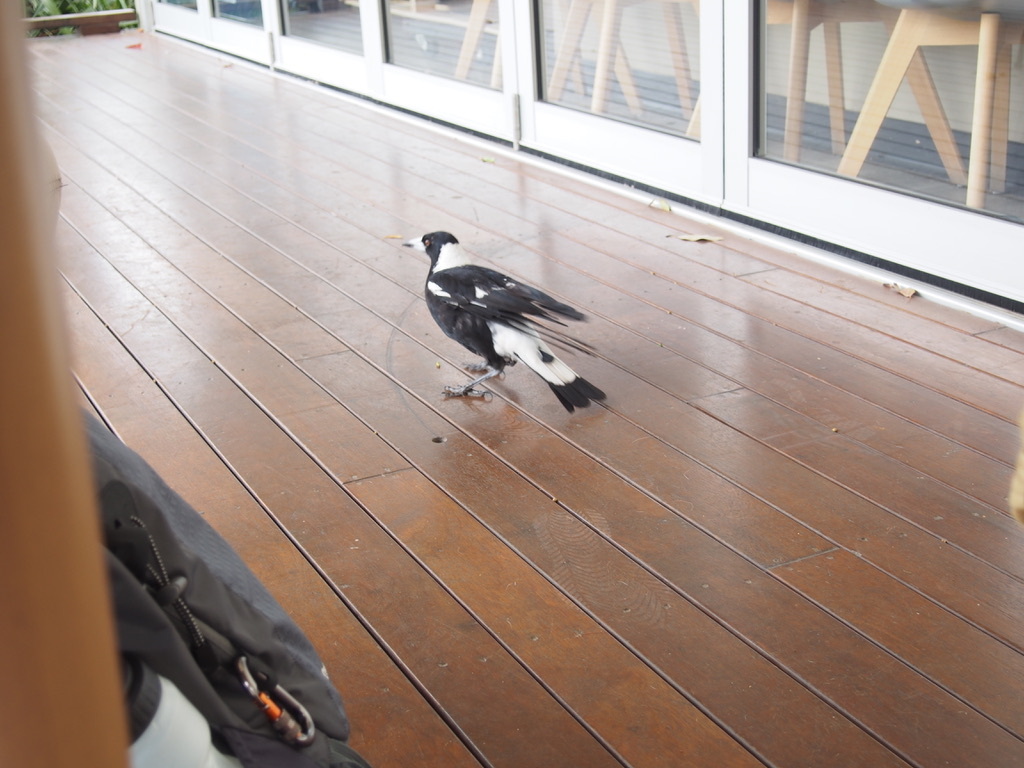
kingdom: Animalia
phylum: Chordata
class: Aves
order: Passeriformes
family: Cracticidae
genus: Gymnorhina
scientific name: Gymnorhina tibicen
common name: Australian magpie
